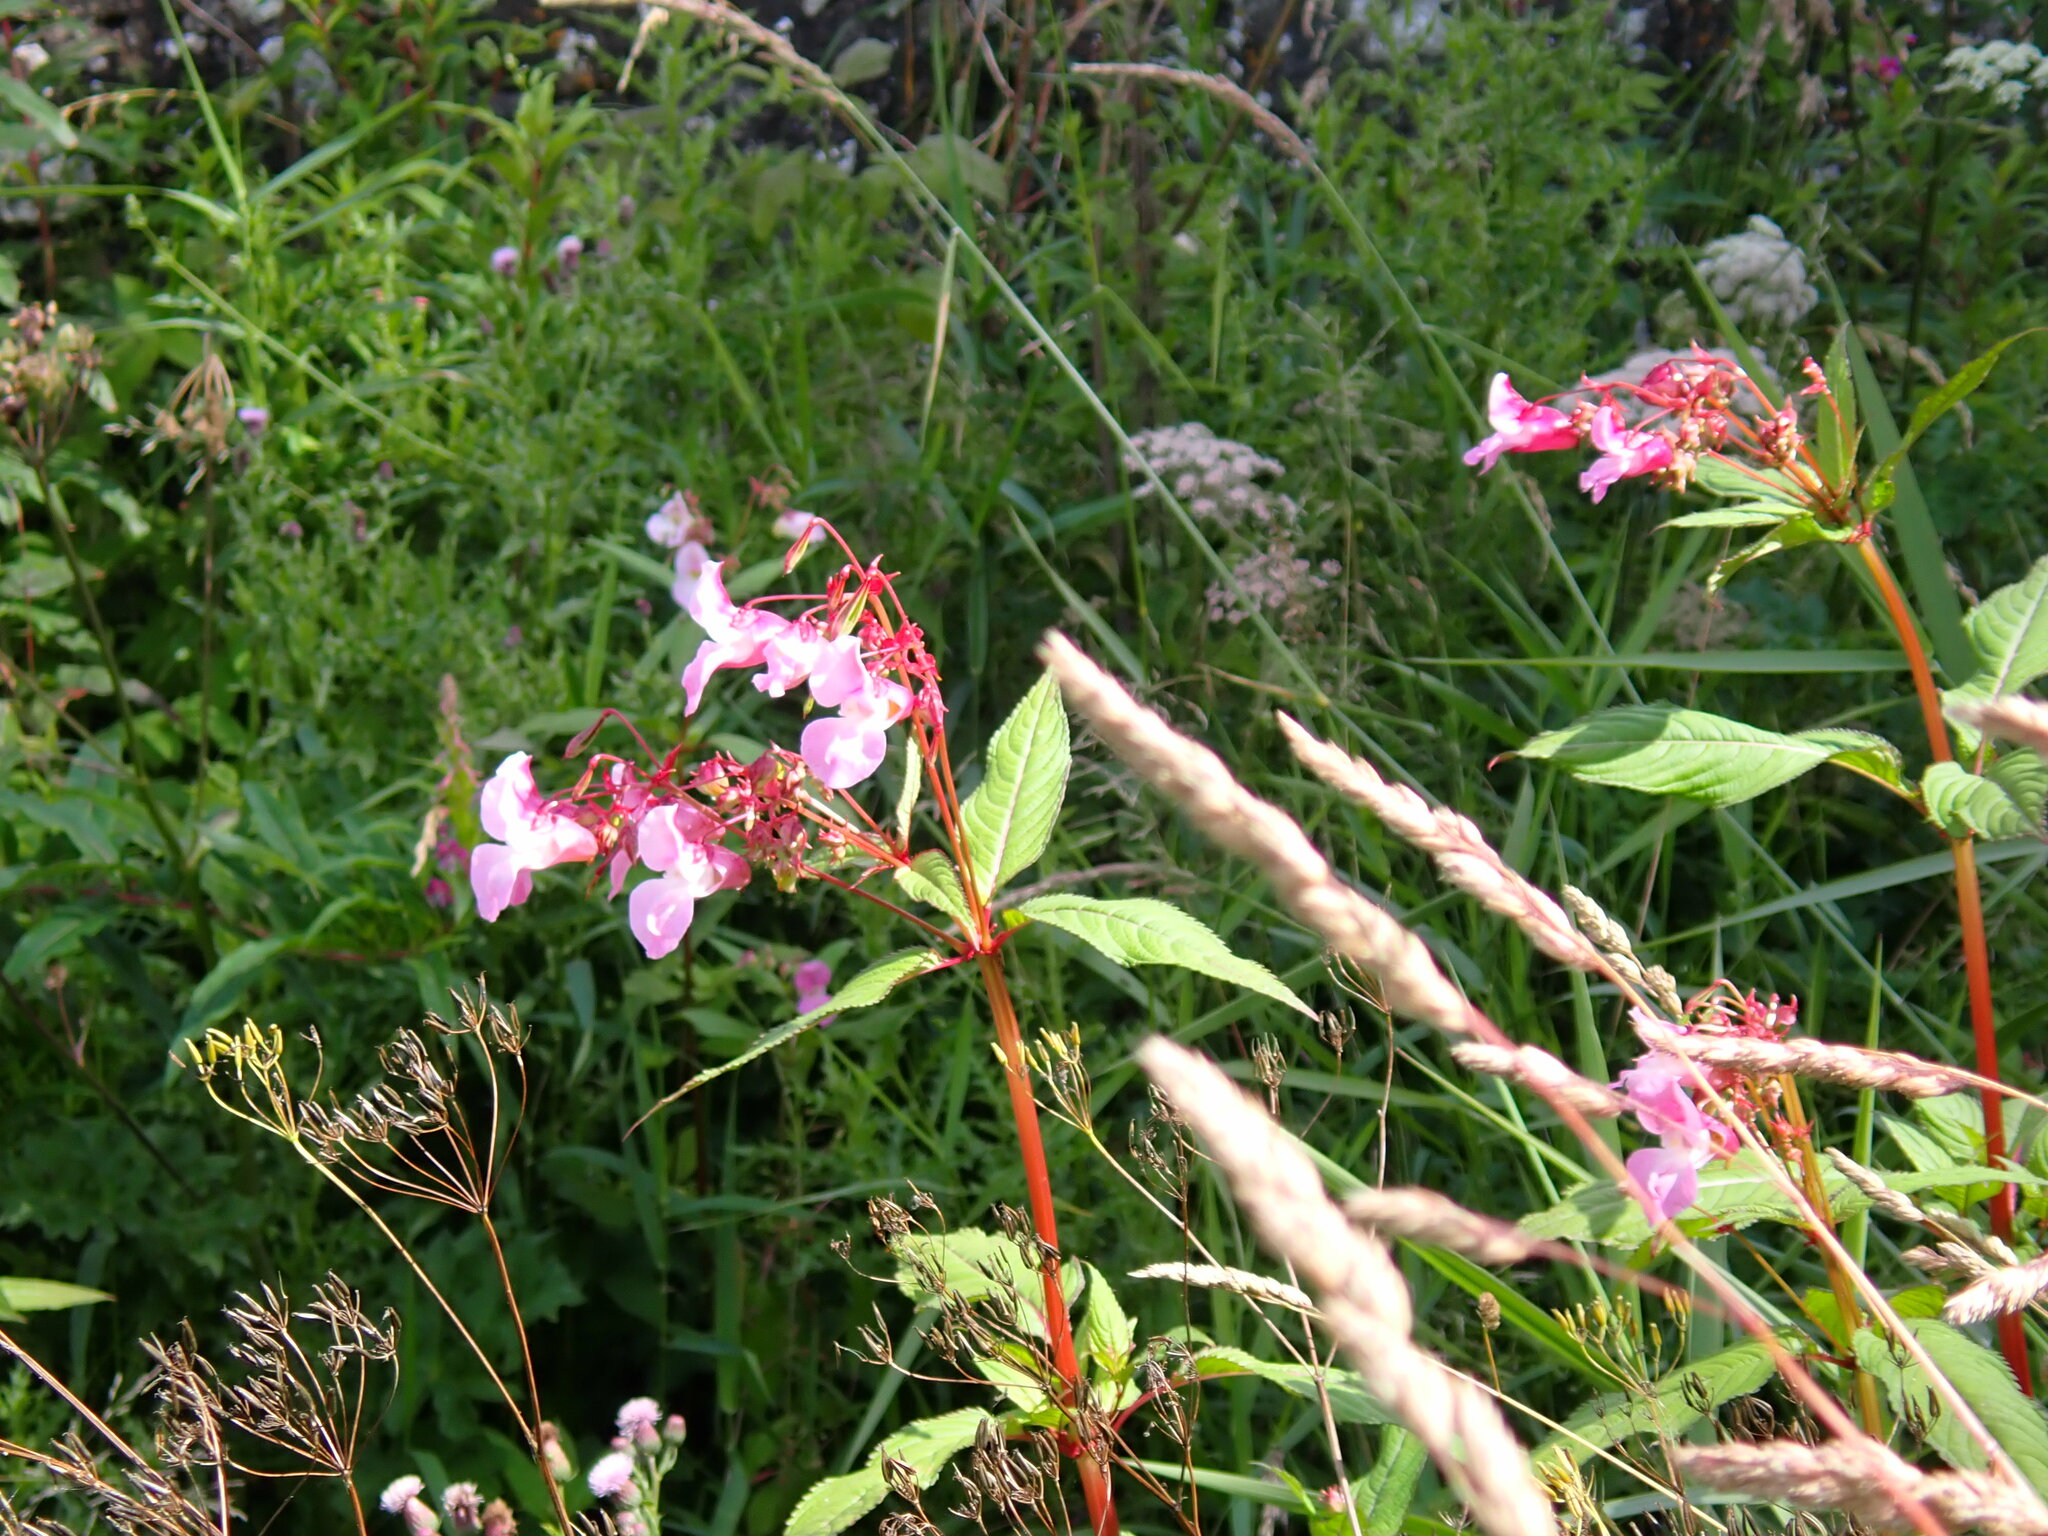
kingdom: Plantae
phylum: Tracheophyta
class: Magnoliopsida
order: Ericales
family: Balsaminaceae
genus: Impatiens
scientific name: Impatiens glandulifera
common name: Himalayan balsam
